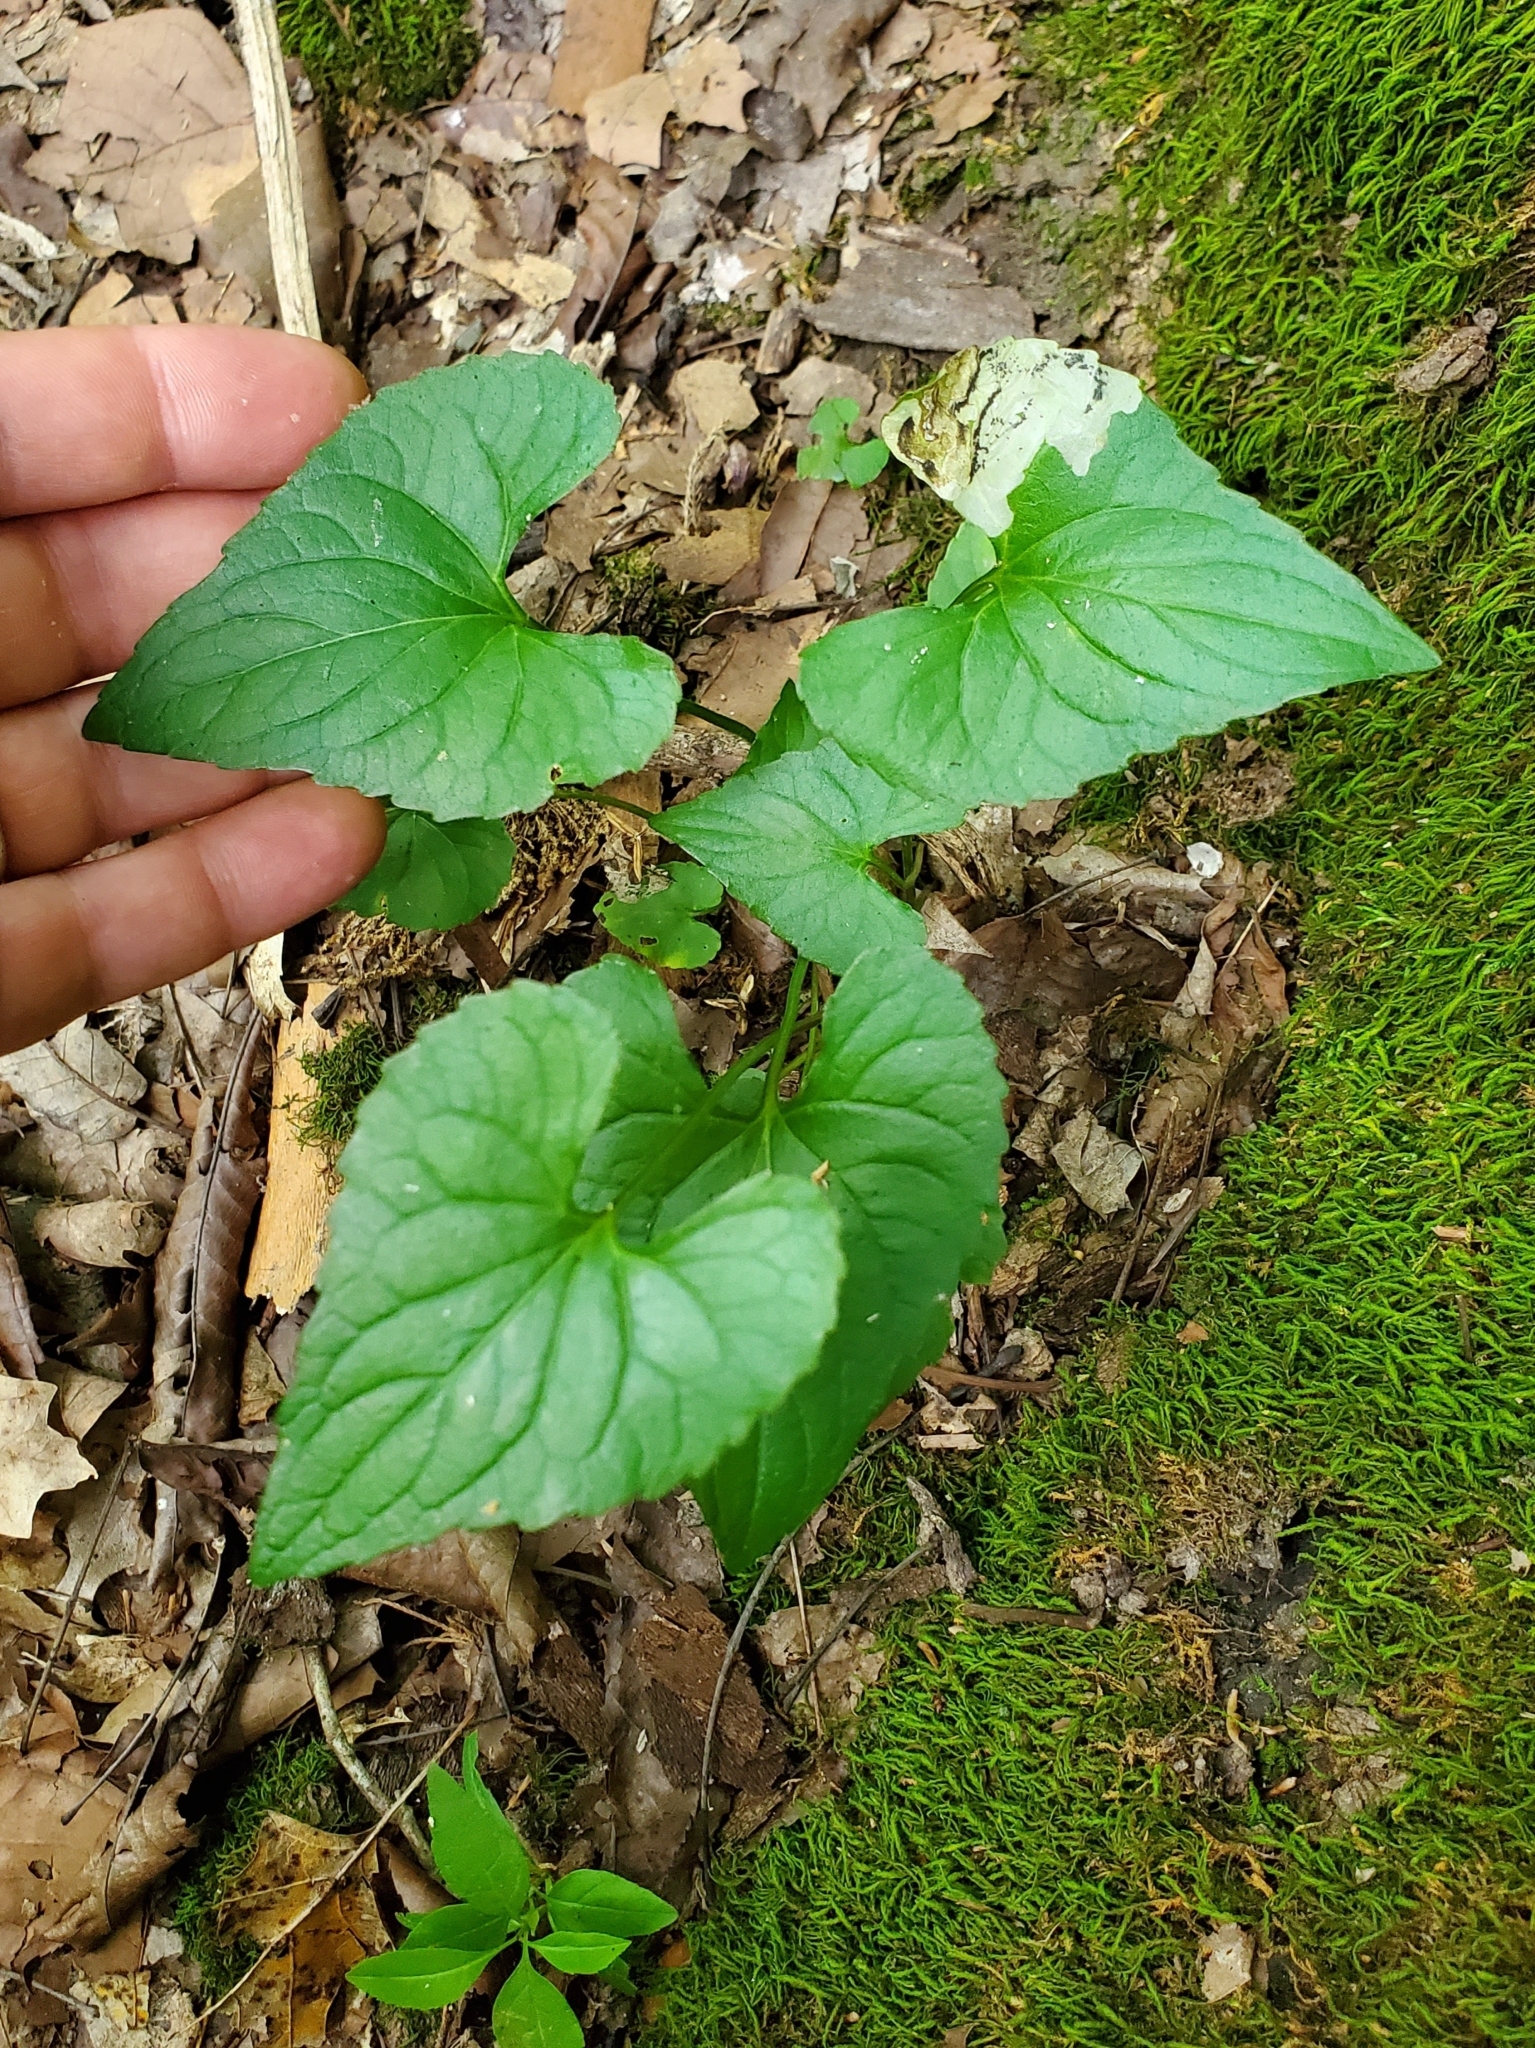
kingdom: Animalia
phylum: Arthropoda
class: Insecta
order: Hymenoptera
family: Tenthredinidae
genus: Nefusa
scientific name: Nefusa ambigua
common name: Violet leafmining sawfly
